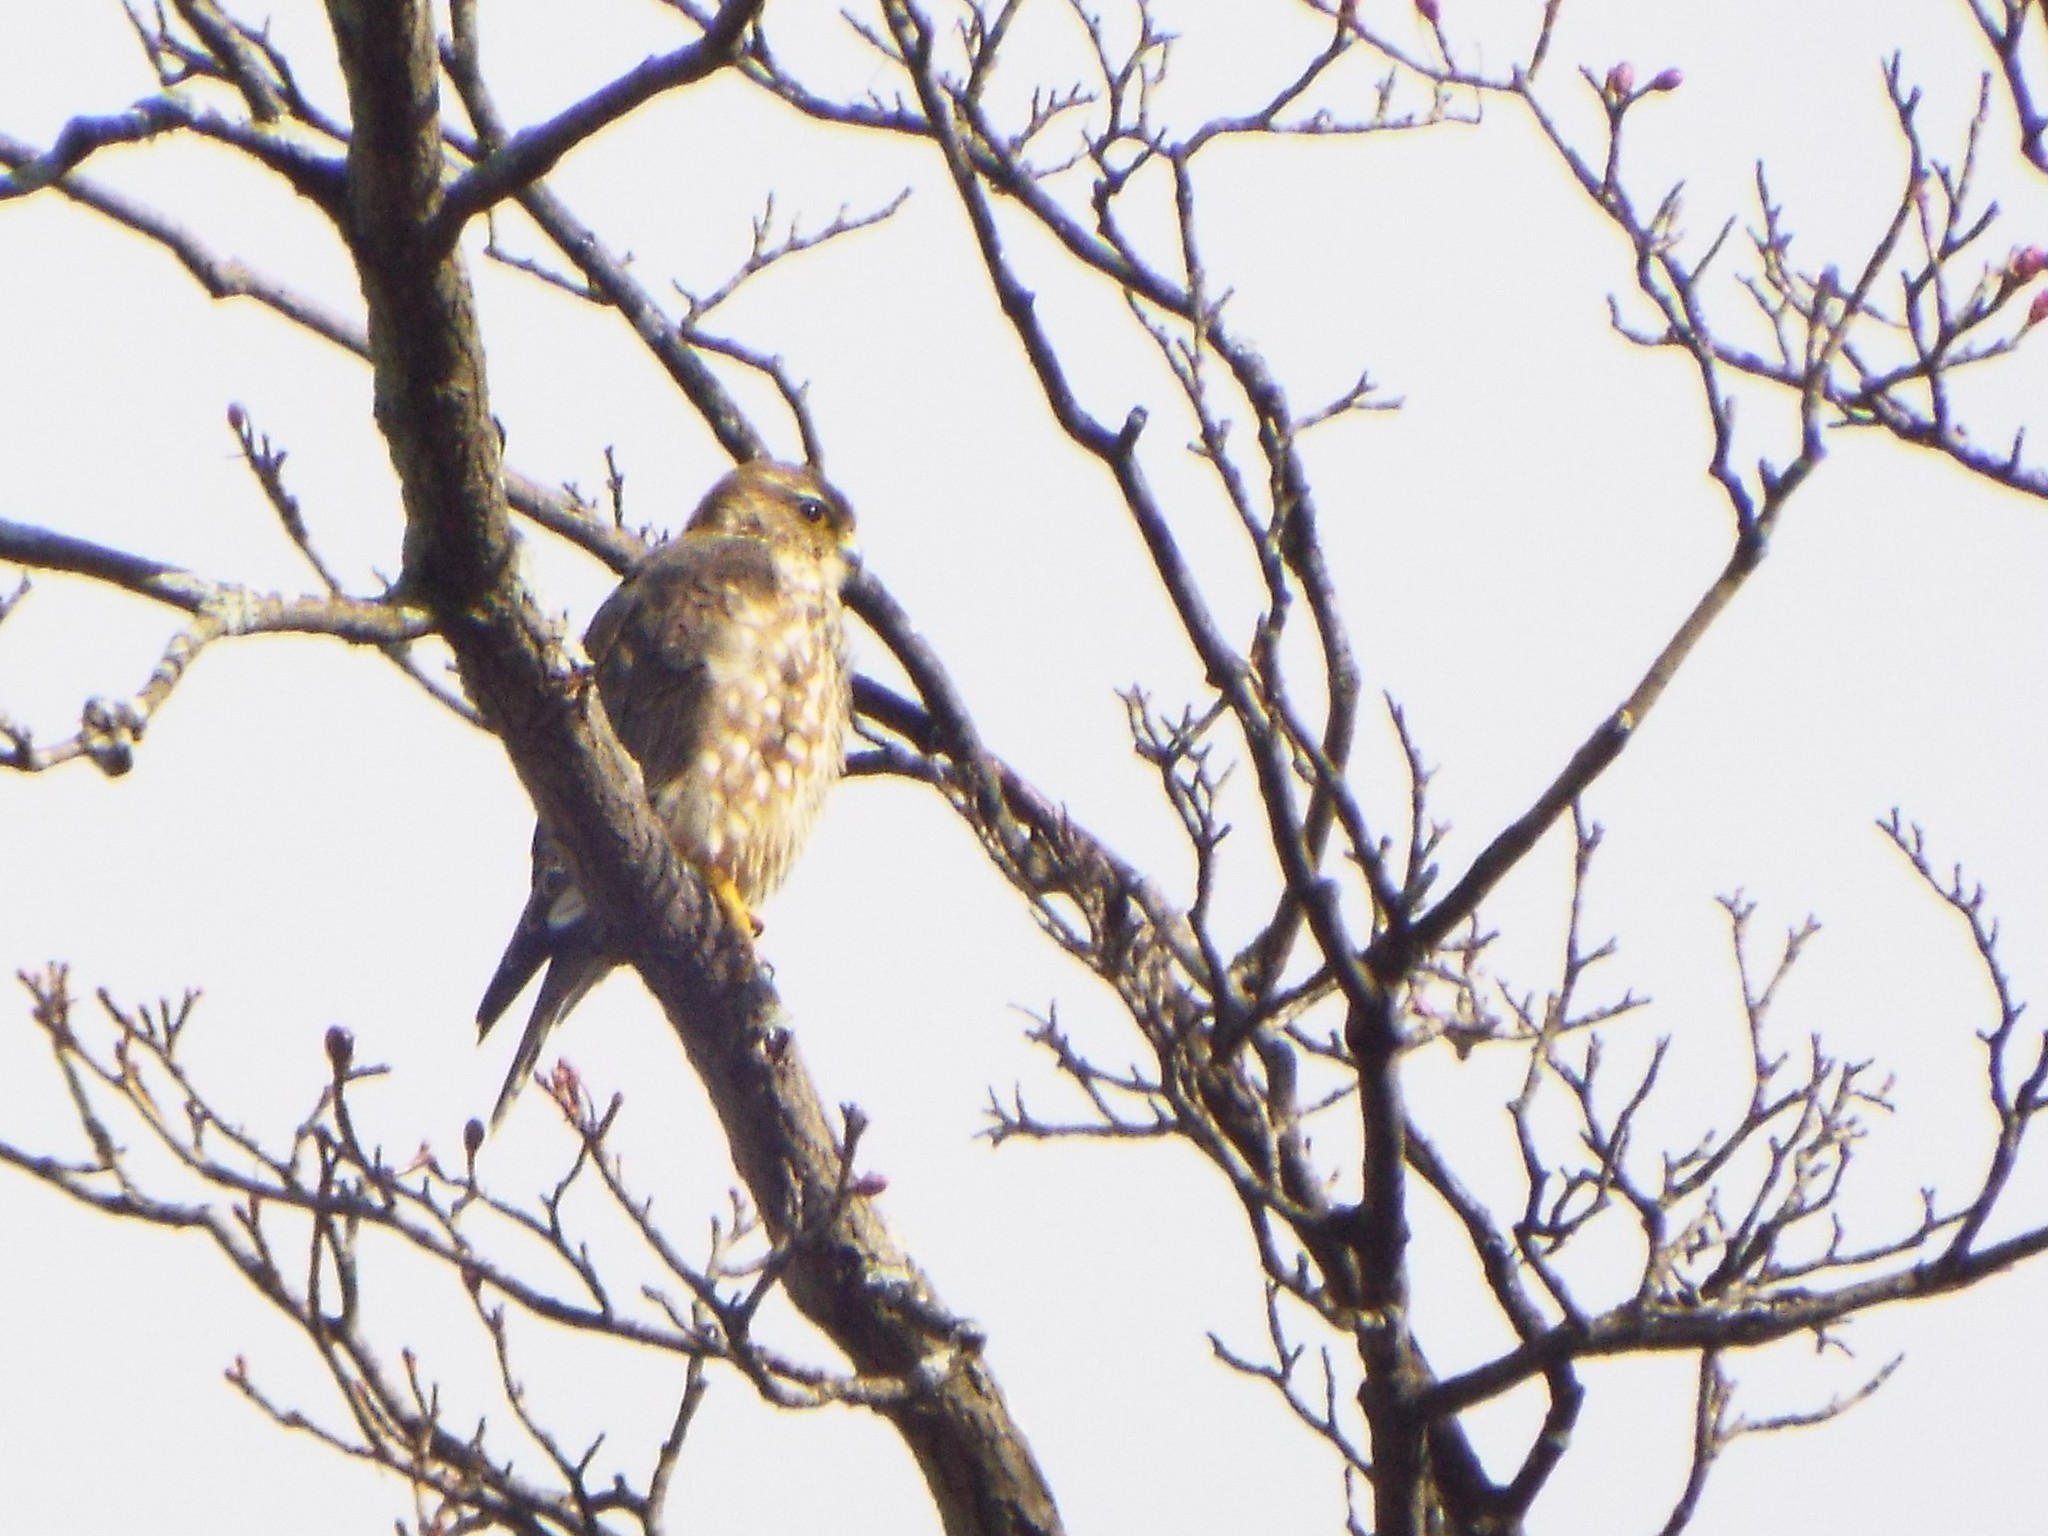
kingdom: Animalia
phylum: Chordata
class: Aves
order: Falconiformes
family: Falconidae
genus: Falco
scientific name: Falco columbarius
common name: Merlin
